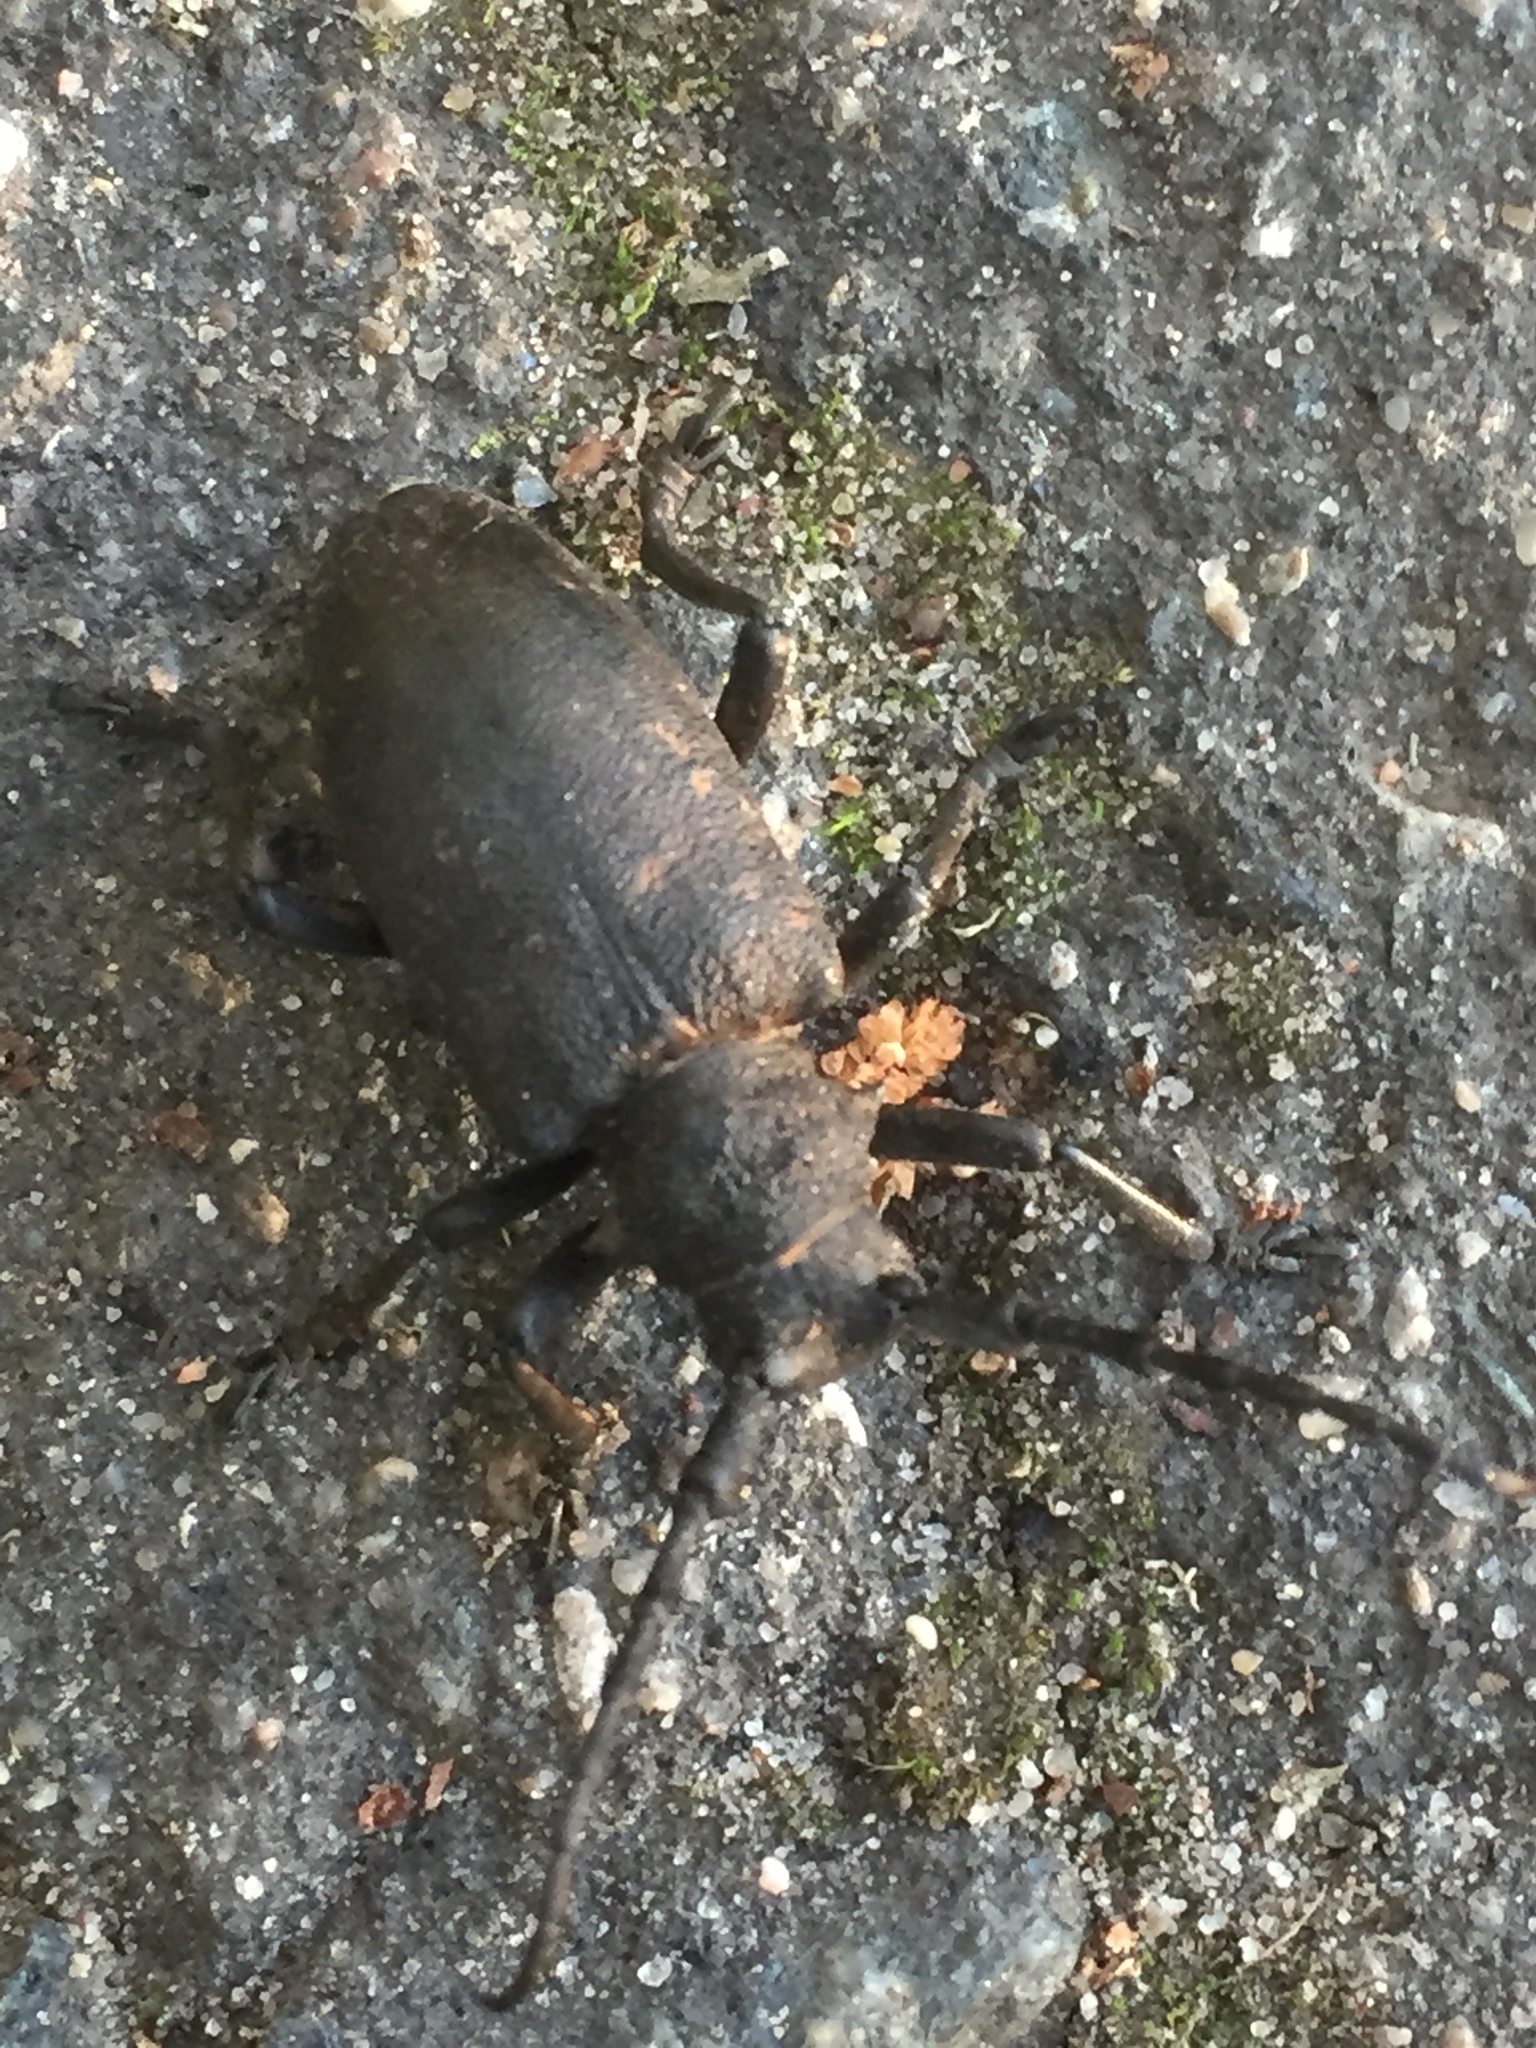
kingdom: Animalia
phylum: Arthropoda
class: Insecta
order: Coleoptera
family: Cerambycidae
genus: Lamia
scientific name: Lamia textor
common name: Weaver beetle
